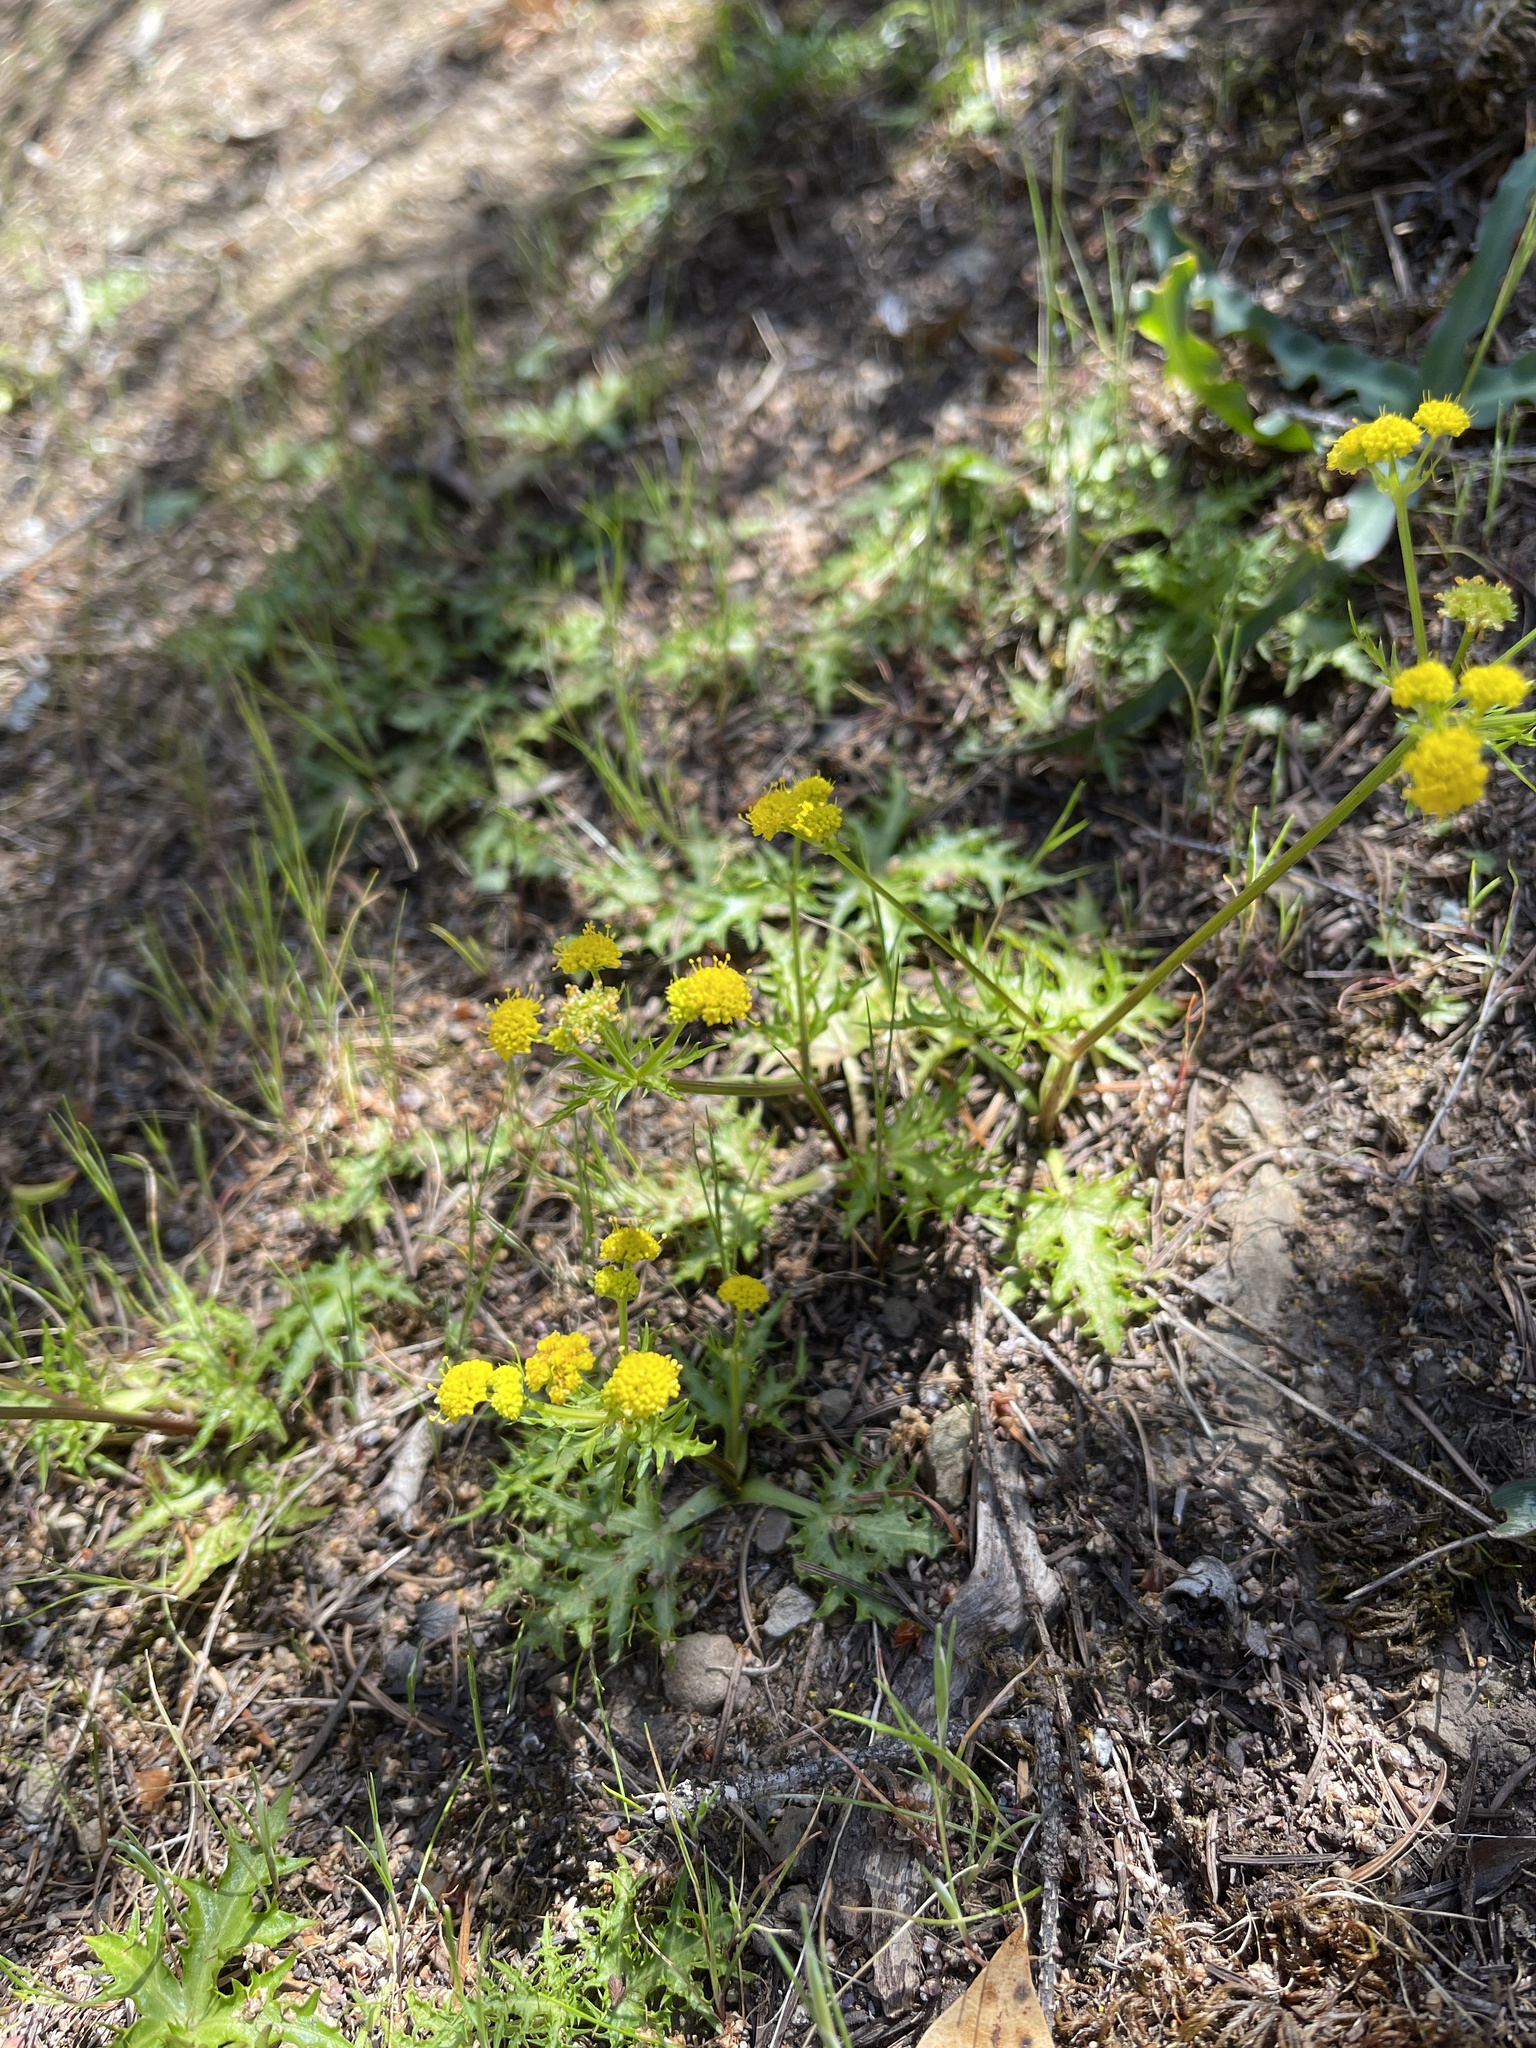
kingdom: Plantae
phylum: Tracheophyta
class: Magnoliopsida
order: Apiales
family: Apiaceae
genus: Sanicula
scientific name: Sanicula laciniata
